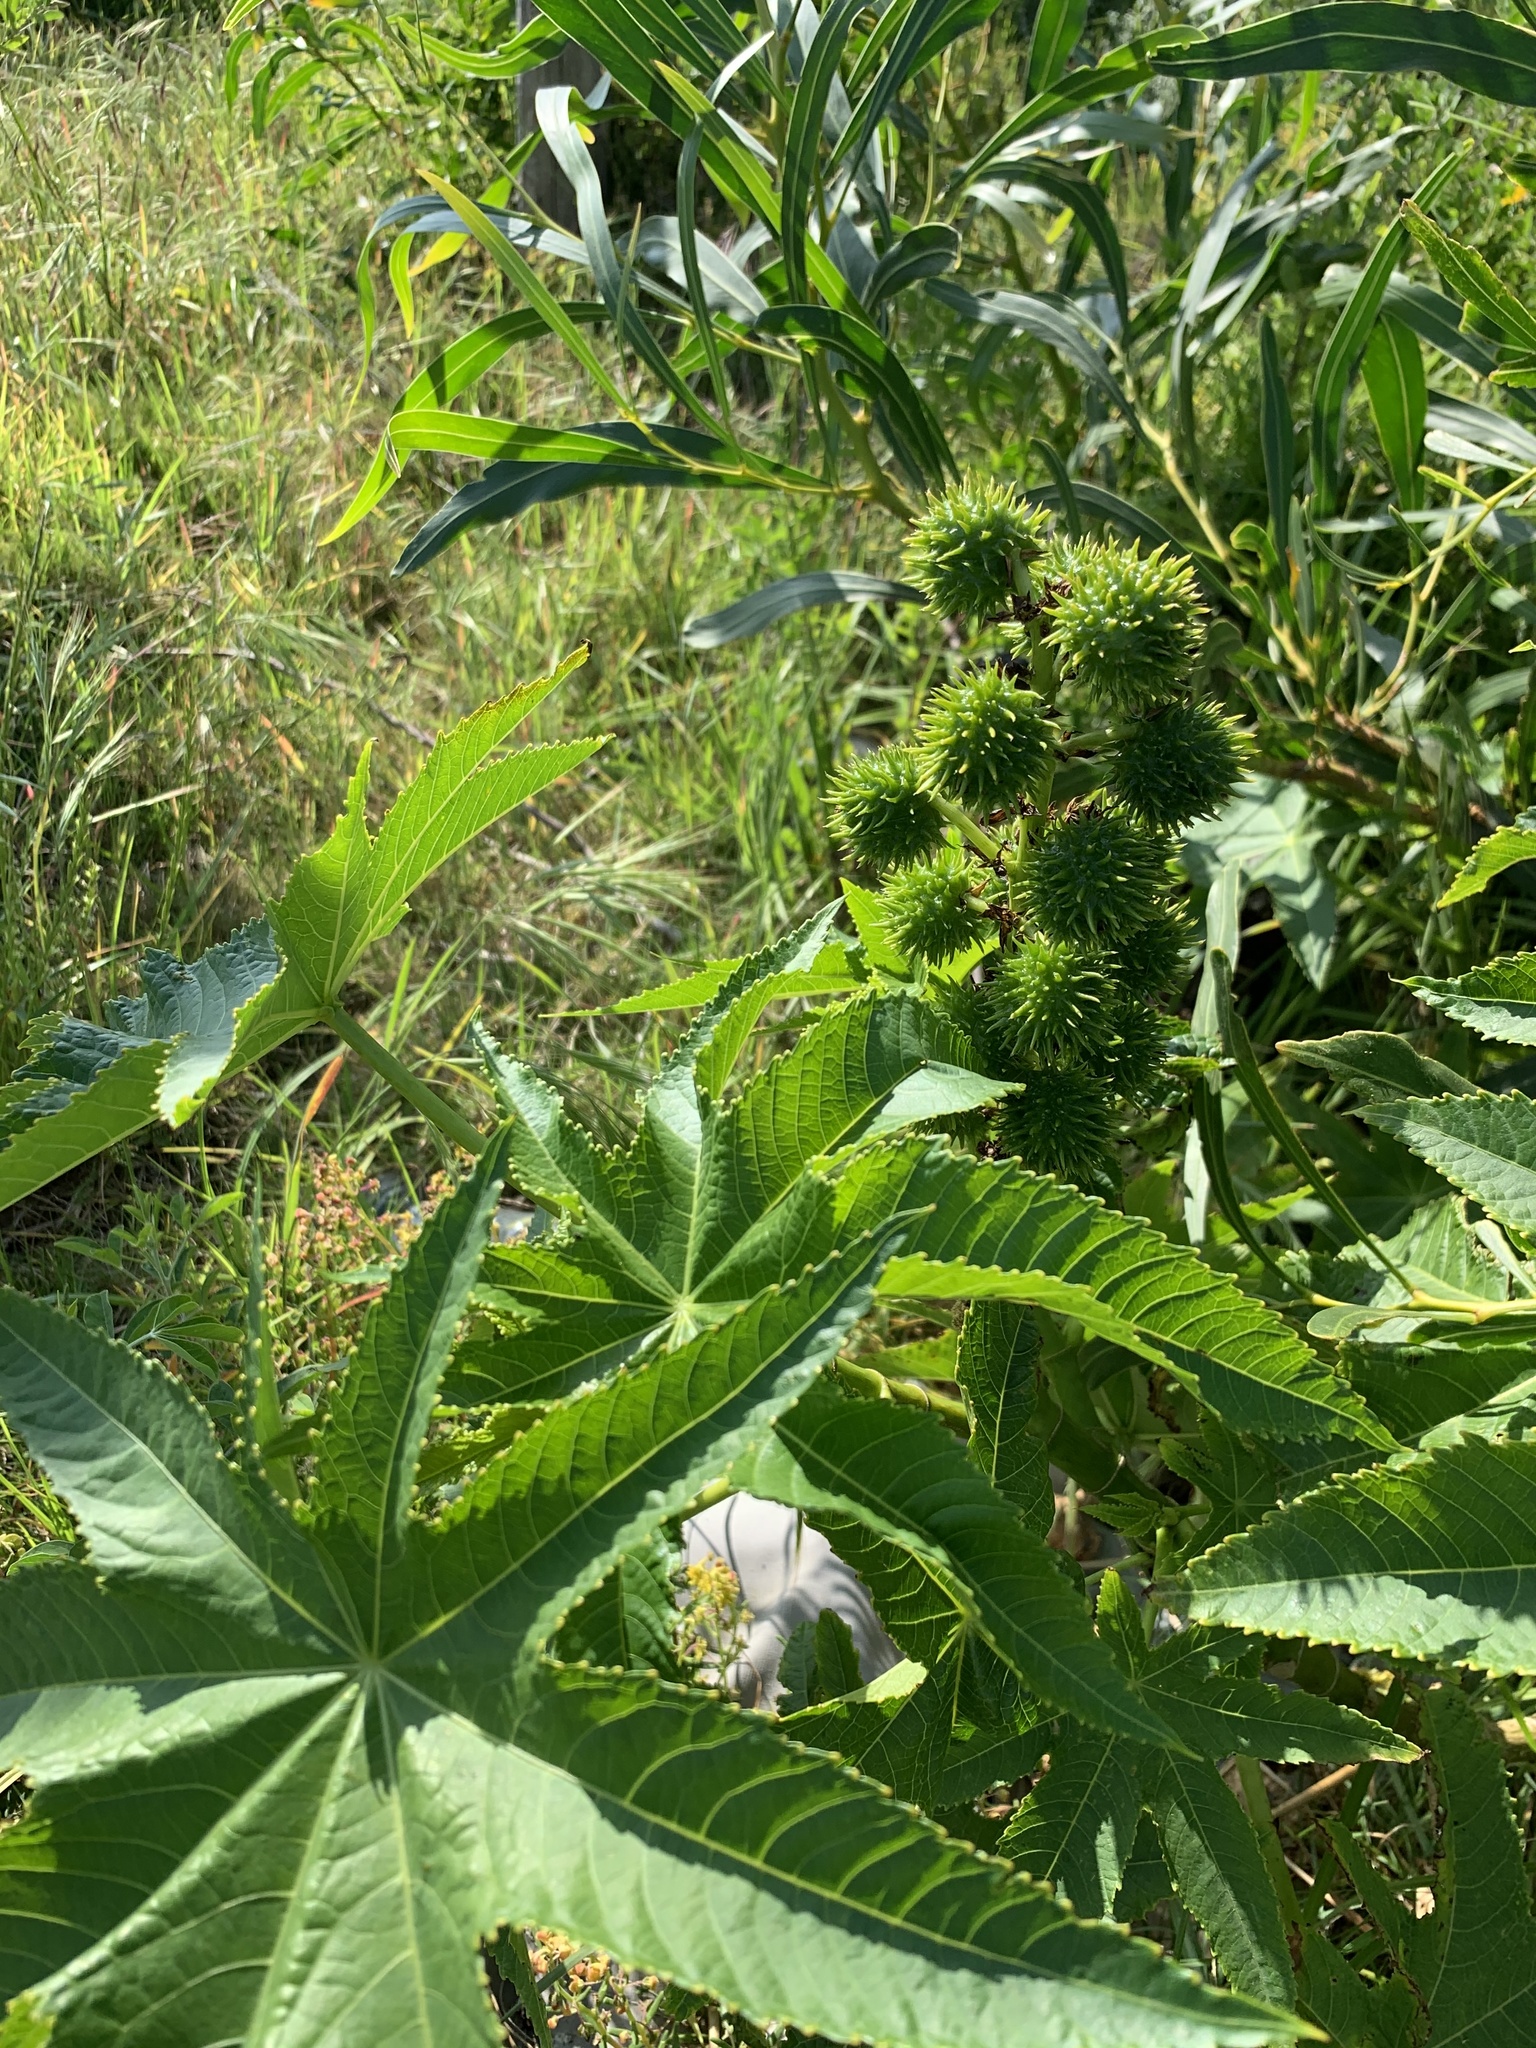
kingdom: Plantae
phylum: Tracheophyta
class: Magnoliopsida
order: Malpighiales
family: Euphorbiaceae
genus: Ricinus
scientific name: Ricinus communis
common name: Castor-oil-plant
